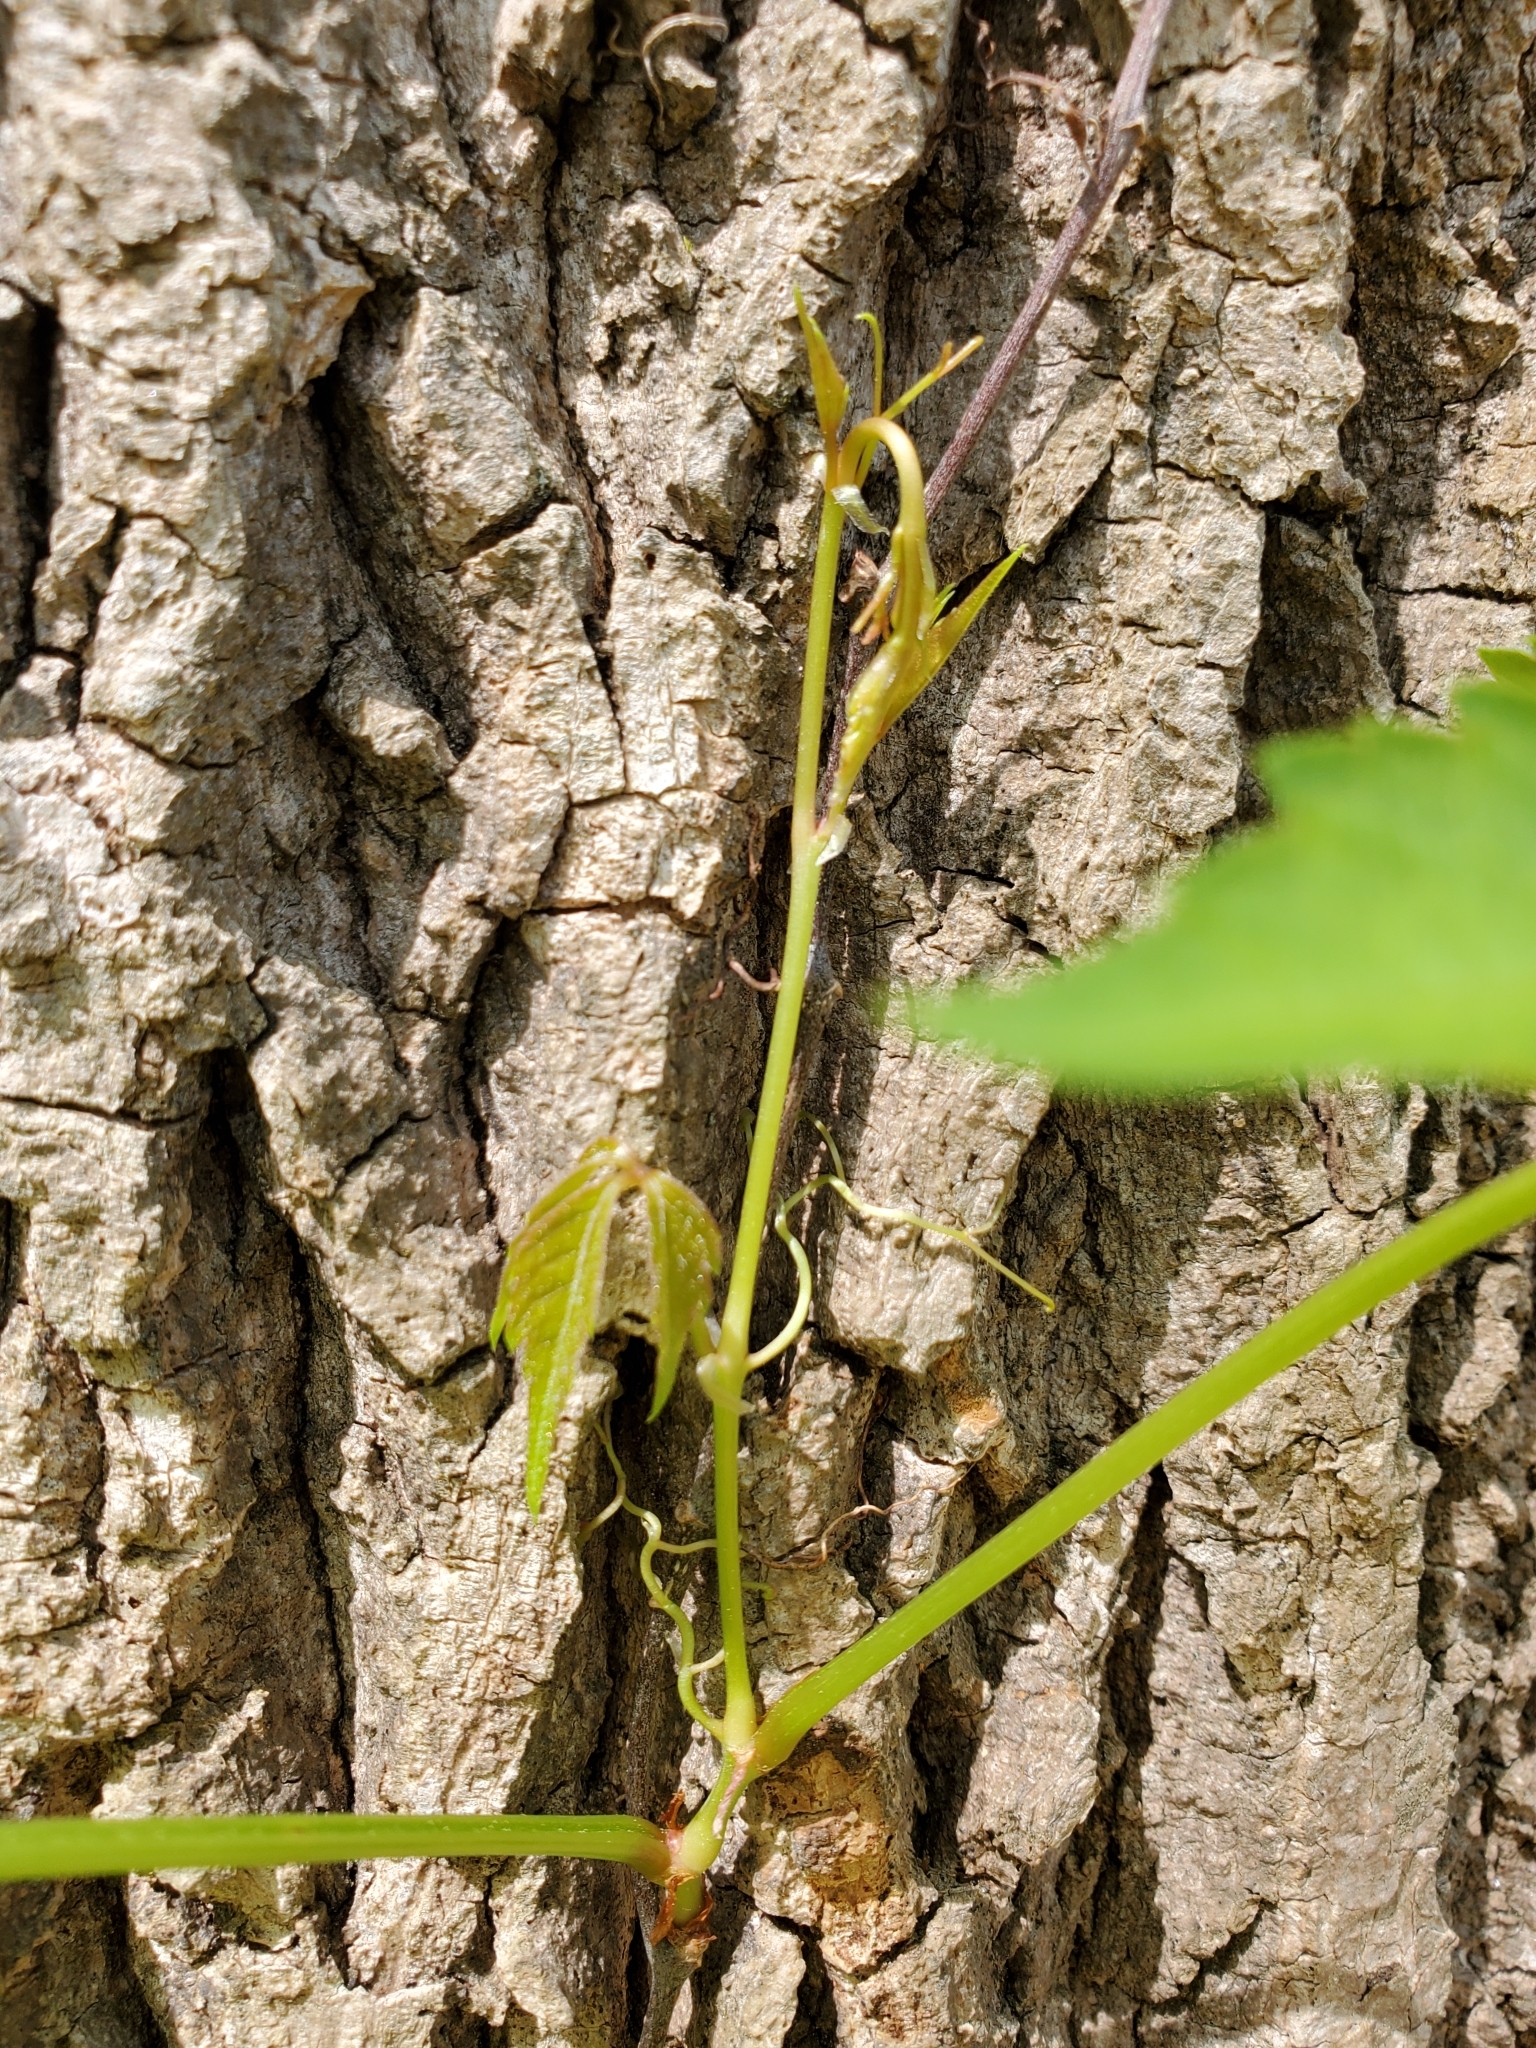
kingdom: Plantae
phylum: Tracheophyta
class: Magnoliopsida
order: Vitales
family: Vitaceae
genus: Parthenocissus
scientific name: Parthenocissus quinquefolia
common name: Virginia-creeper
